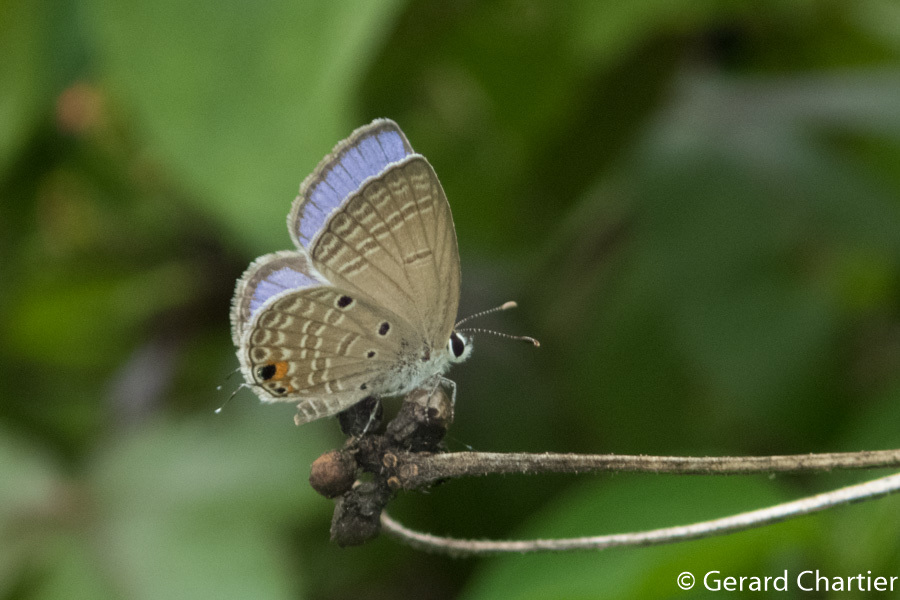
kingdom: Animalia
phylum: Arthropoda
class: Insecta
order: Lepidoptera
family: Lycaenidae
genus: Luthrodes
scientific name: Luthrodes pandava
